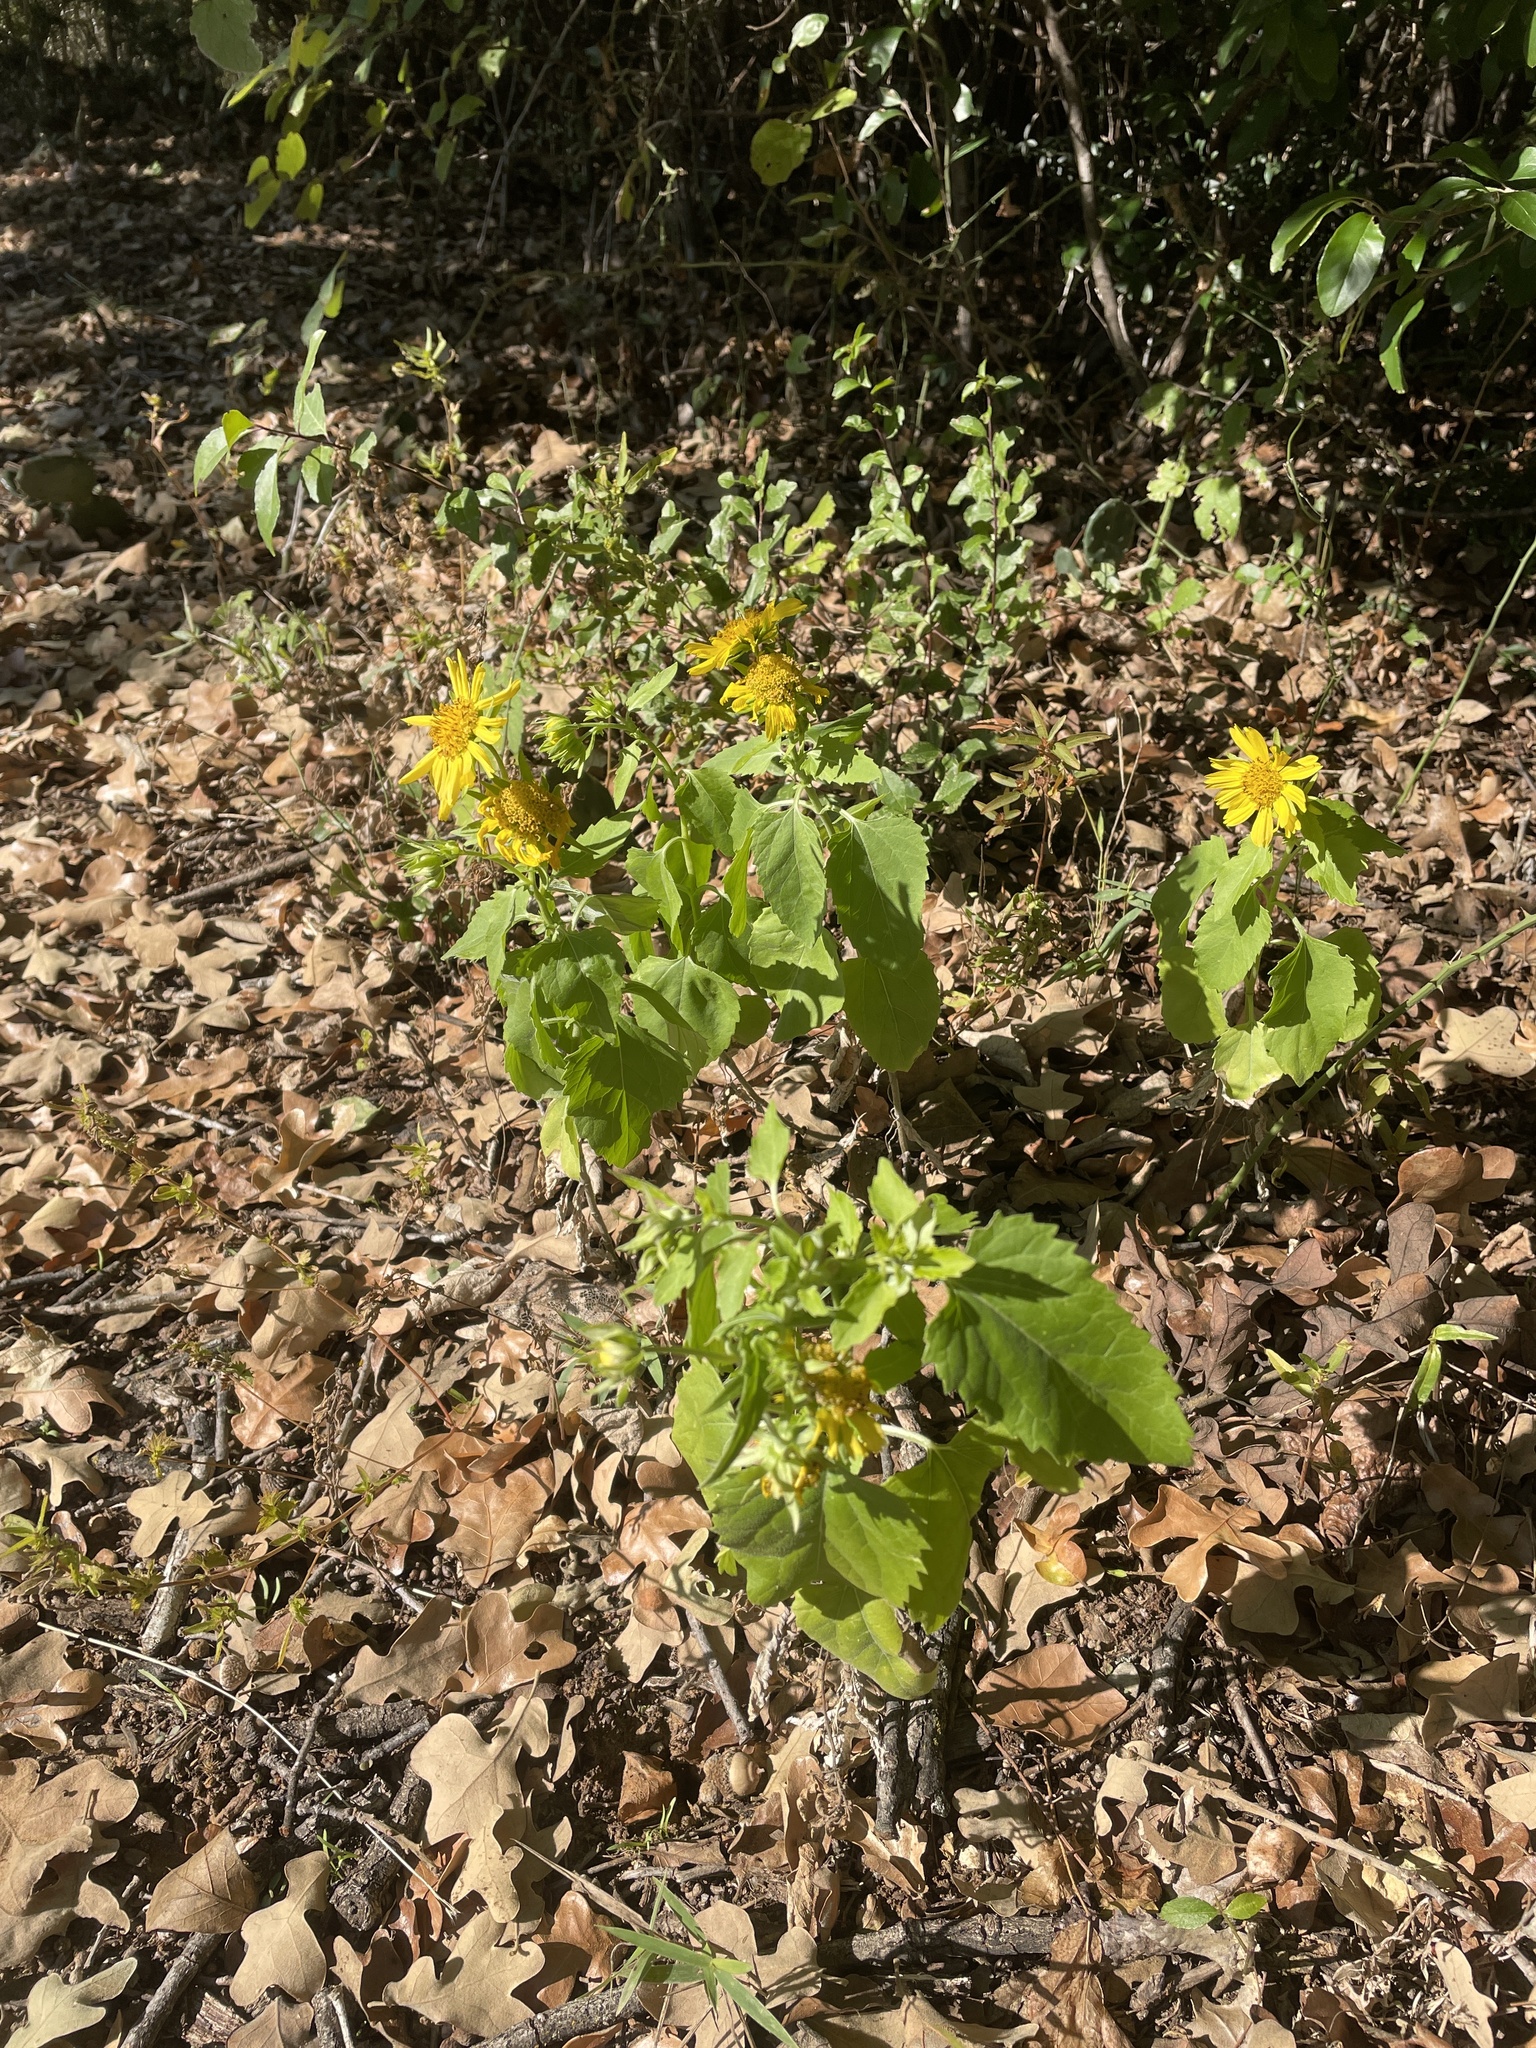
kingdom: Plantae
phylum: Tracheophyta
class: Magnoliopsida
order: Asterales
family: Asteraceae
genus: Verbesina
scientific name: Verbesina encelioides
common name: Golden crownbeard
